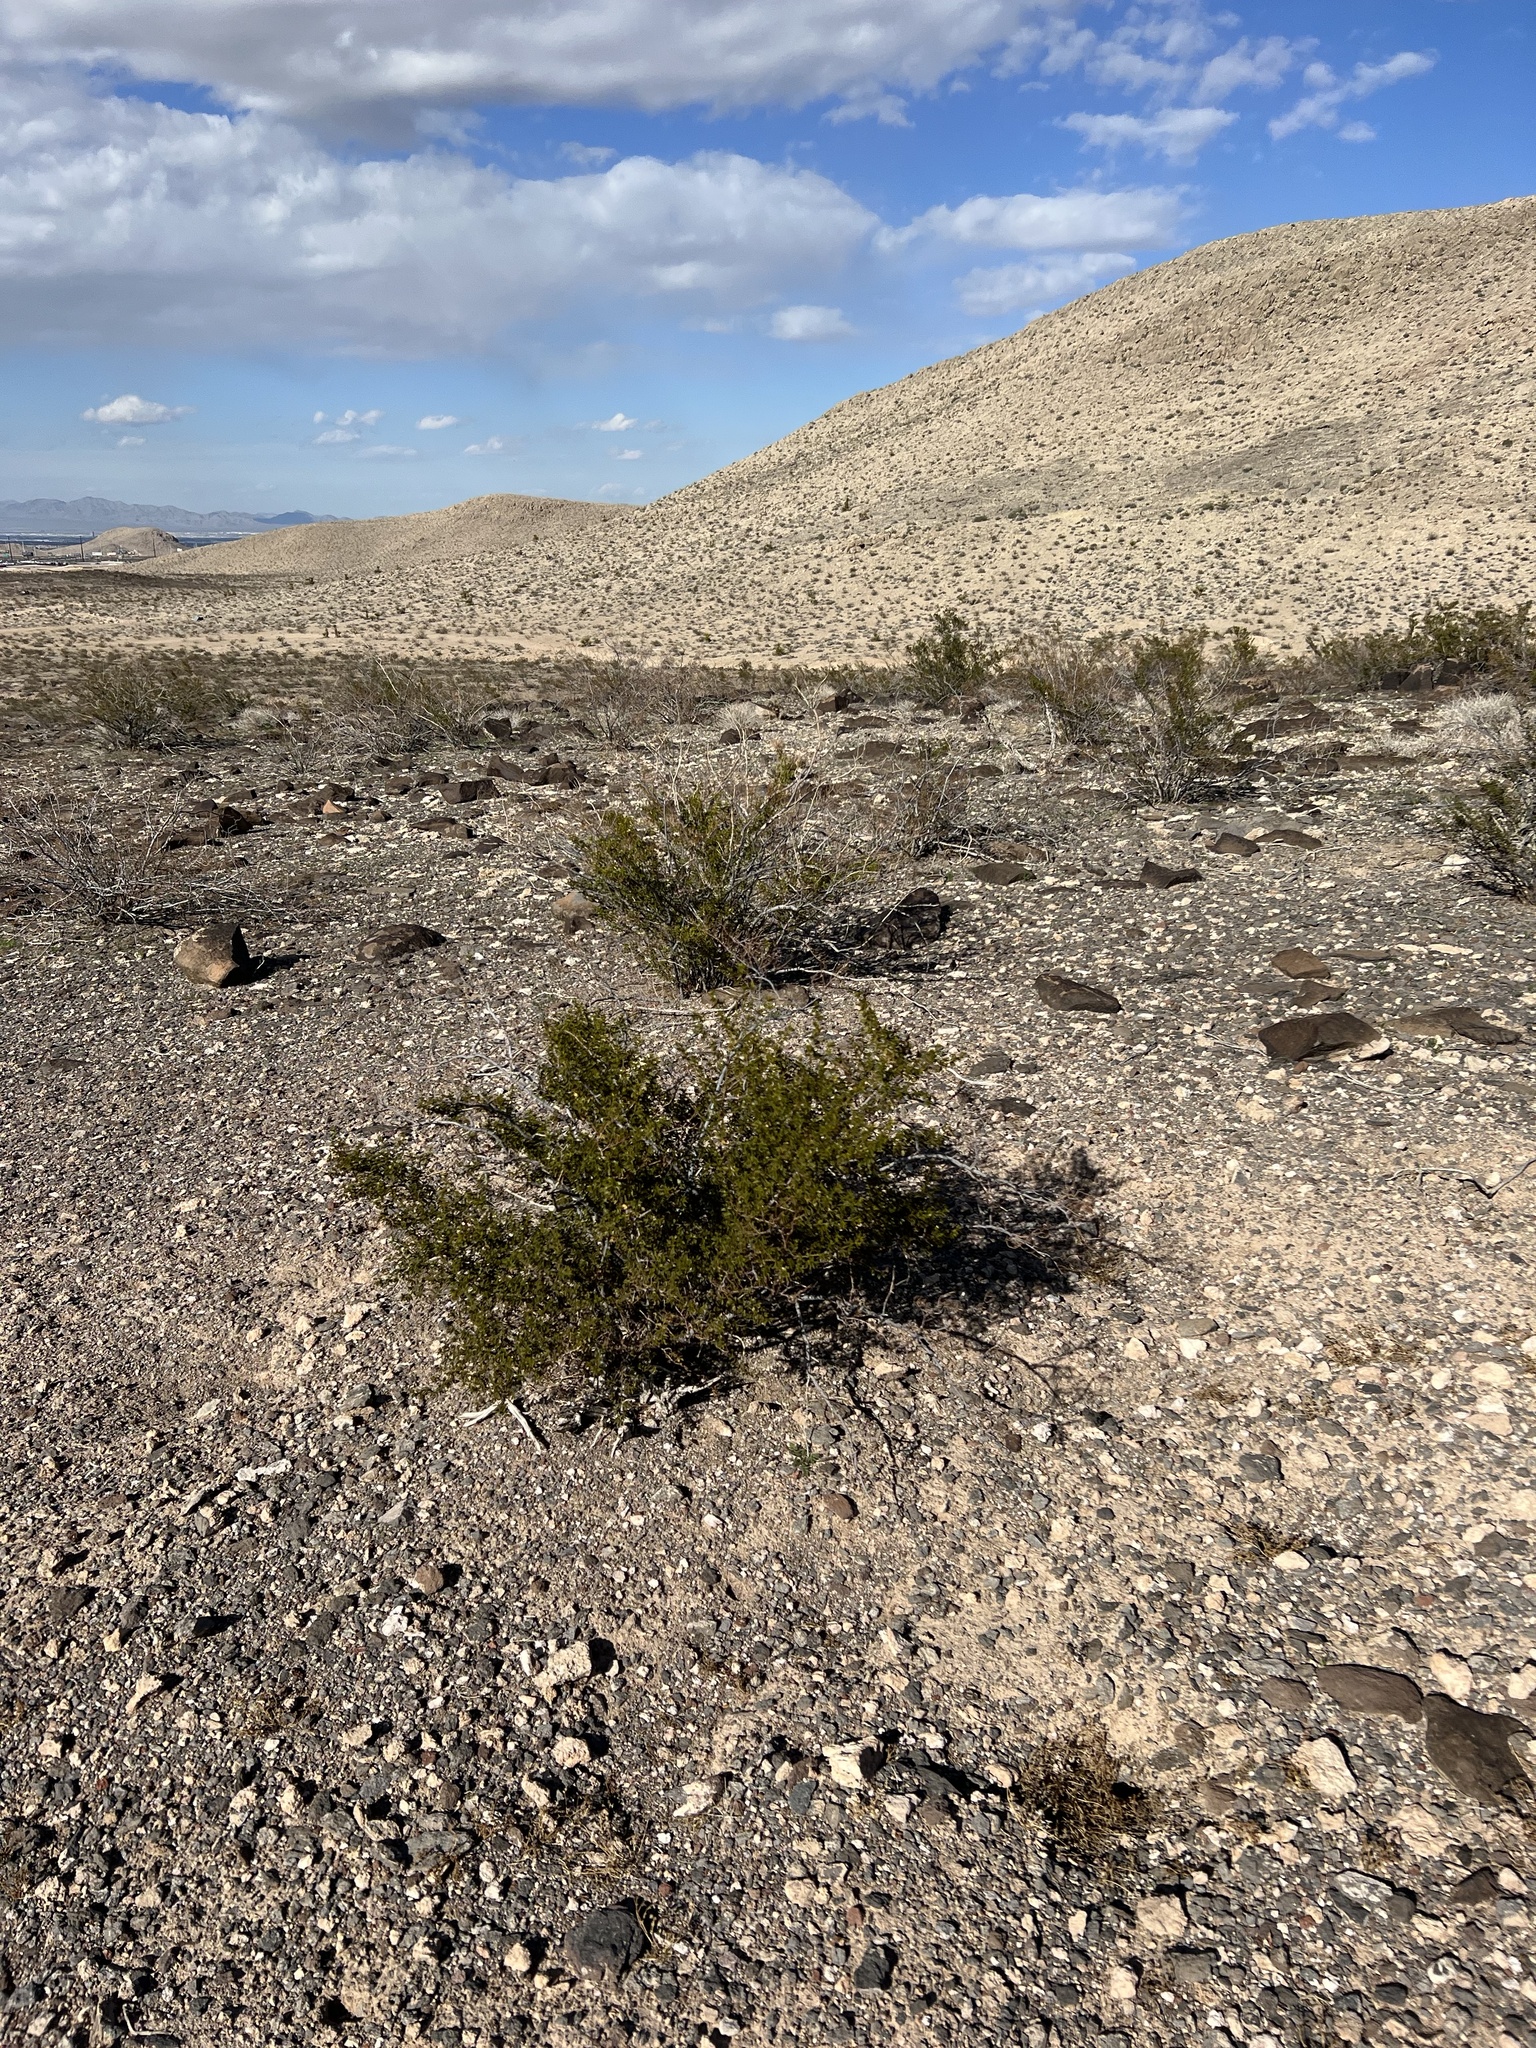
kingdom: Plantae
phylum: Tracheophyta
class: Magnoliopsida
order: Zygophyllales
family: Zygophyllaceae
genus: Larrea
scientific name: Larrea tridentata
